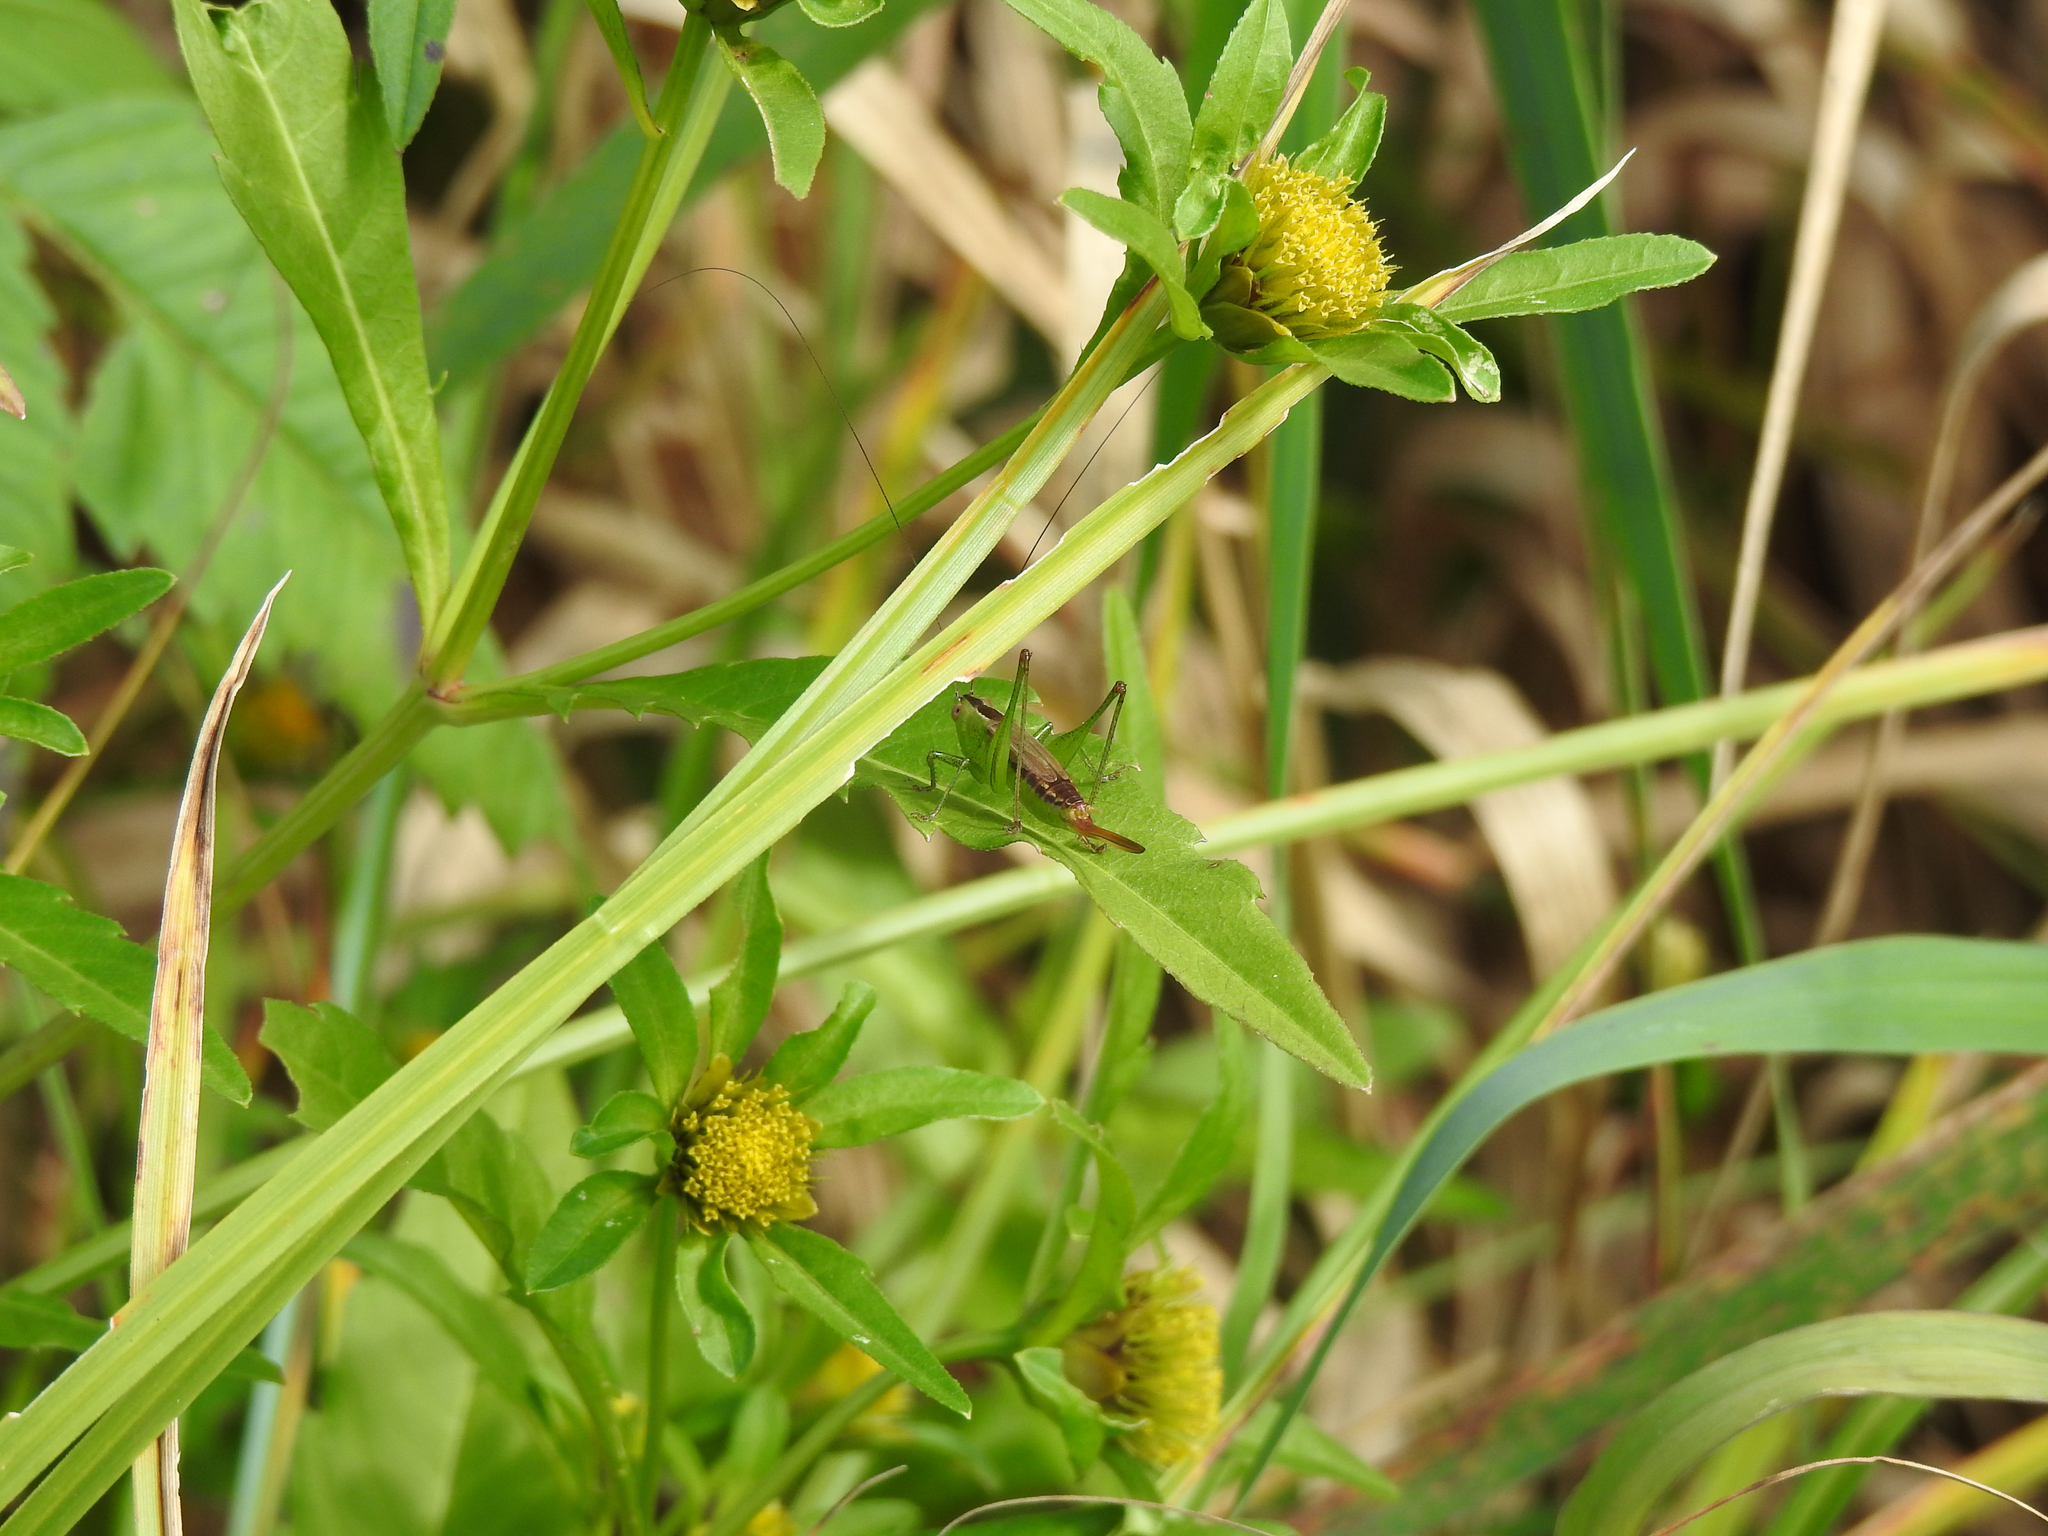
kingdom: Animalia
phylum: Arthropoda
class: Insecta
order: Orthoptera
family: Tettigoniidae
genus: Conocephalus
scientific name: Conocephalus brevipennis
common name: Short-winged meadow katydid
